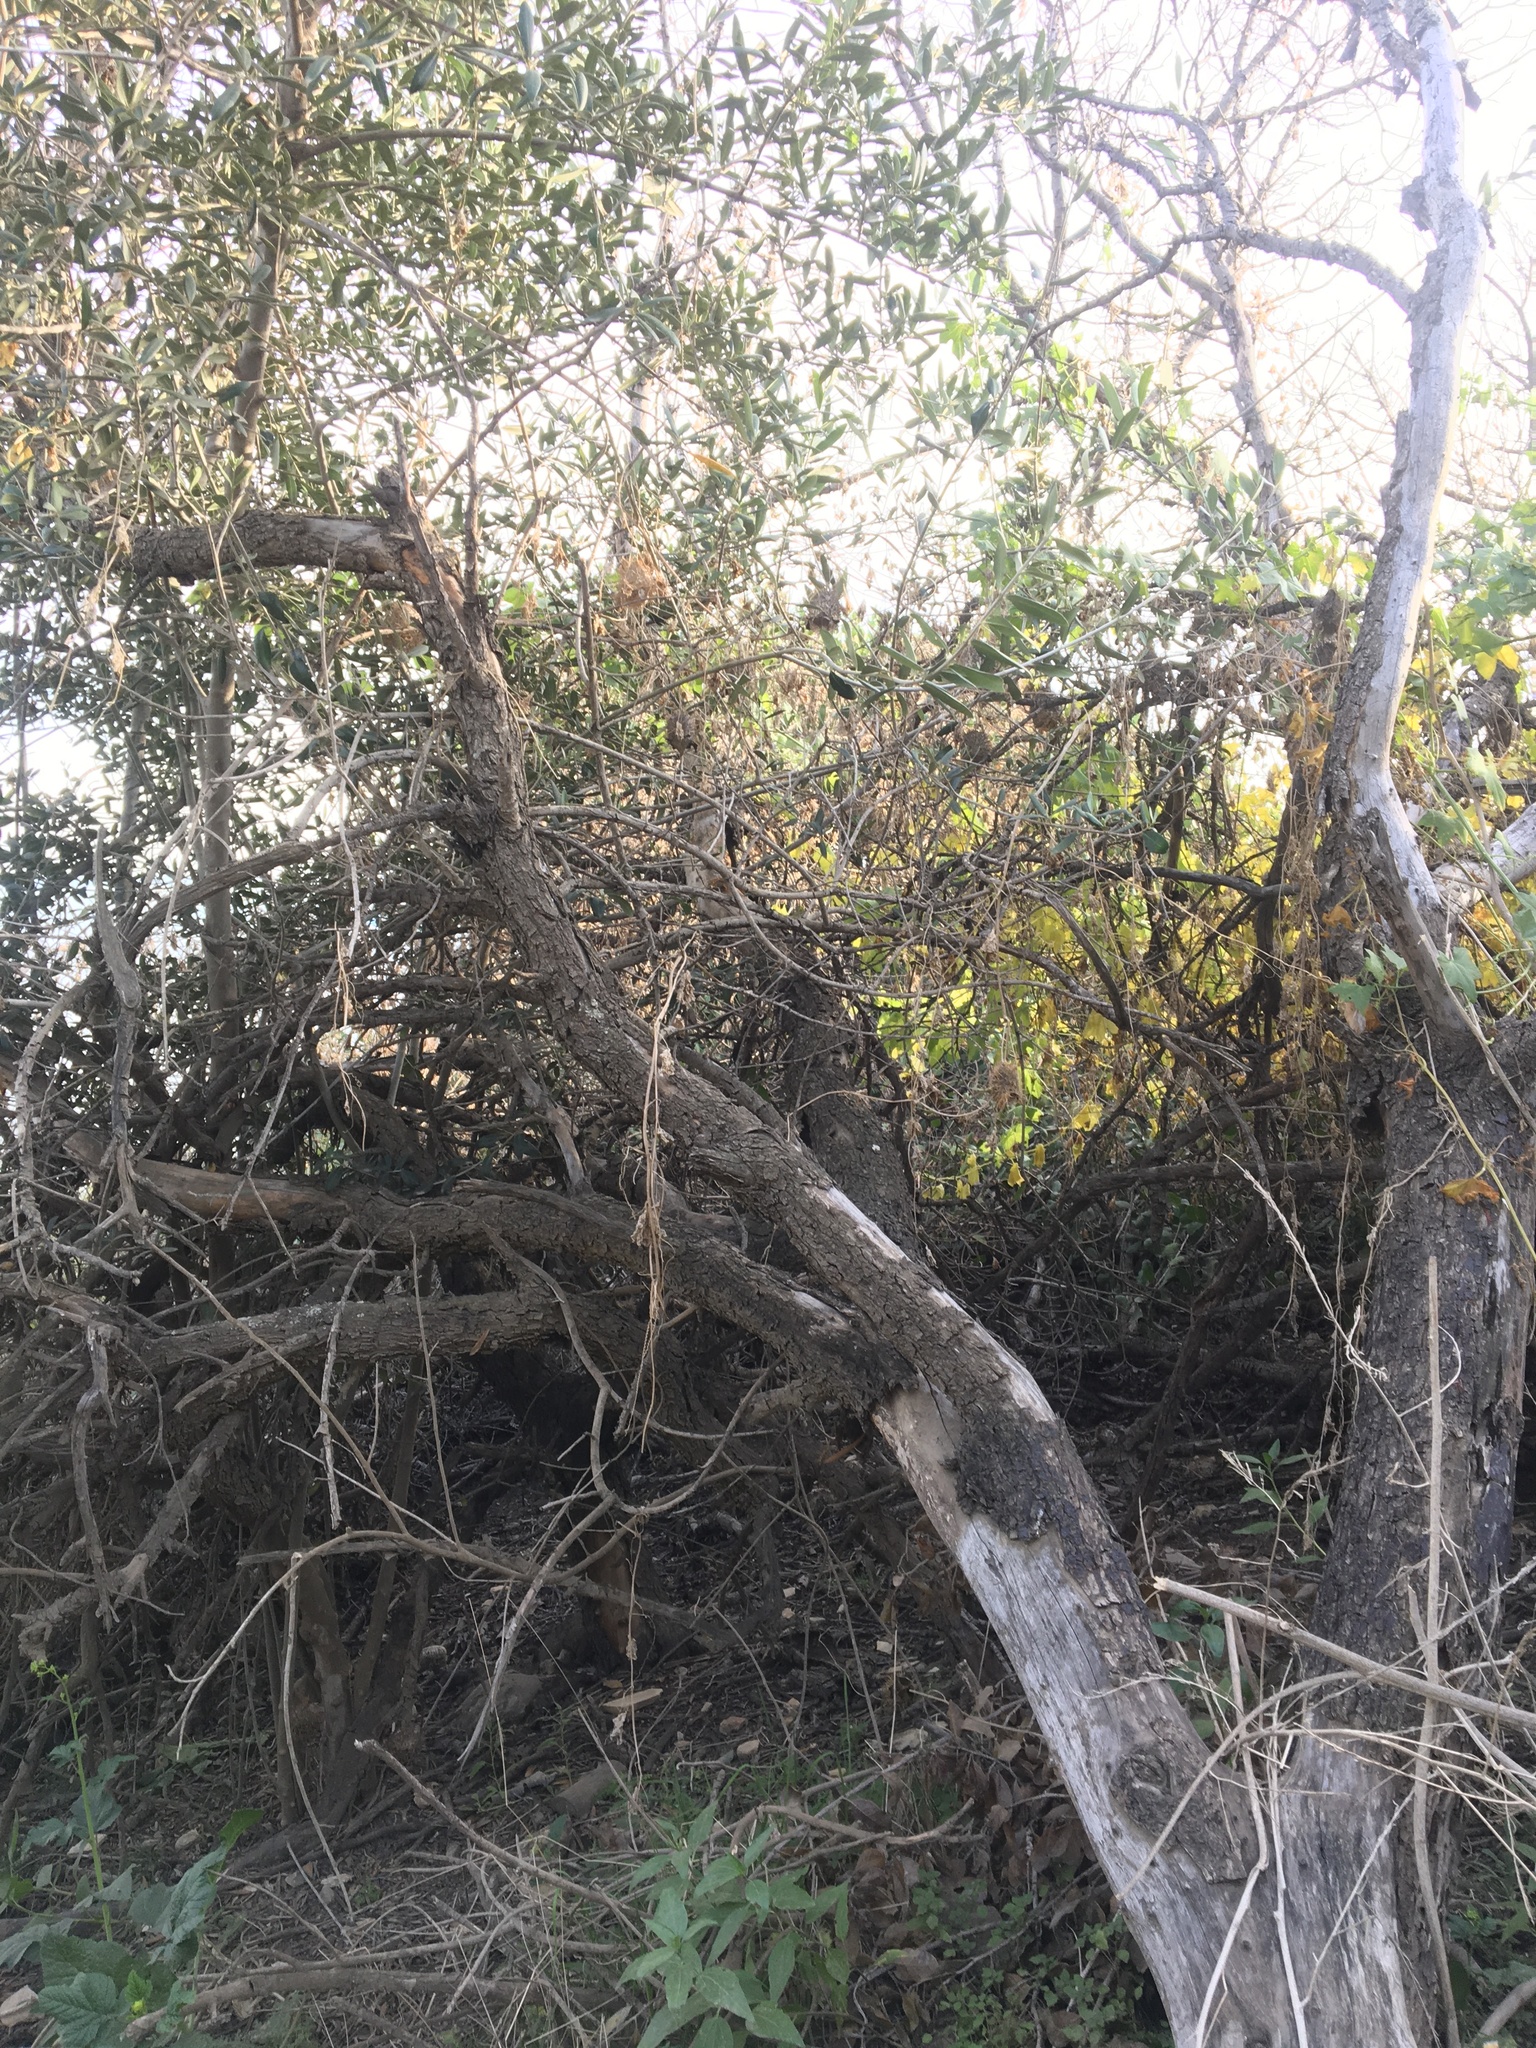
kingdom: Plantae
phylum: Tracheophyta
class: Magnoliopsida
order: Lamiales
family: Oleaceae
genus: Olea
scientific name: Olea europaea
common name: Olive
